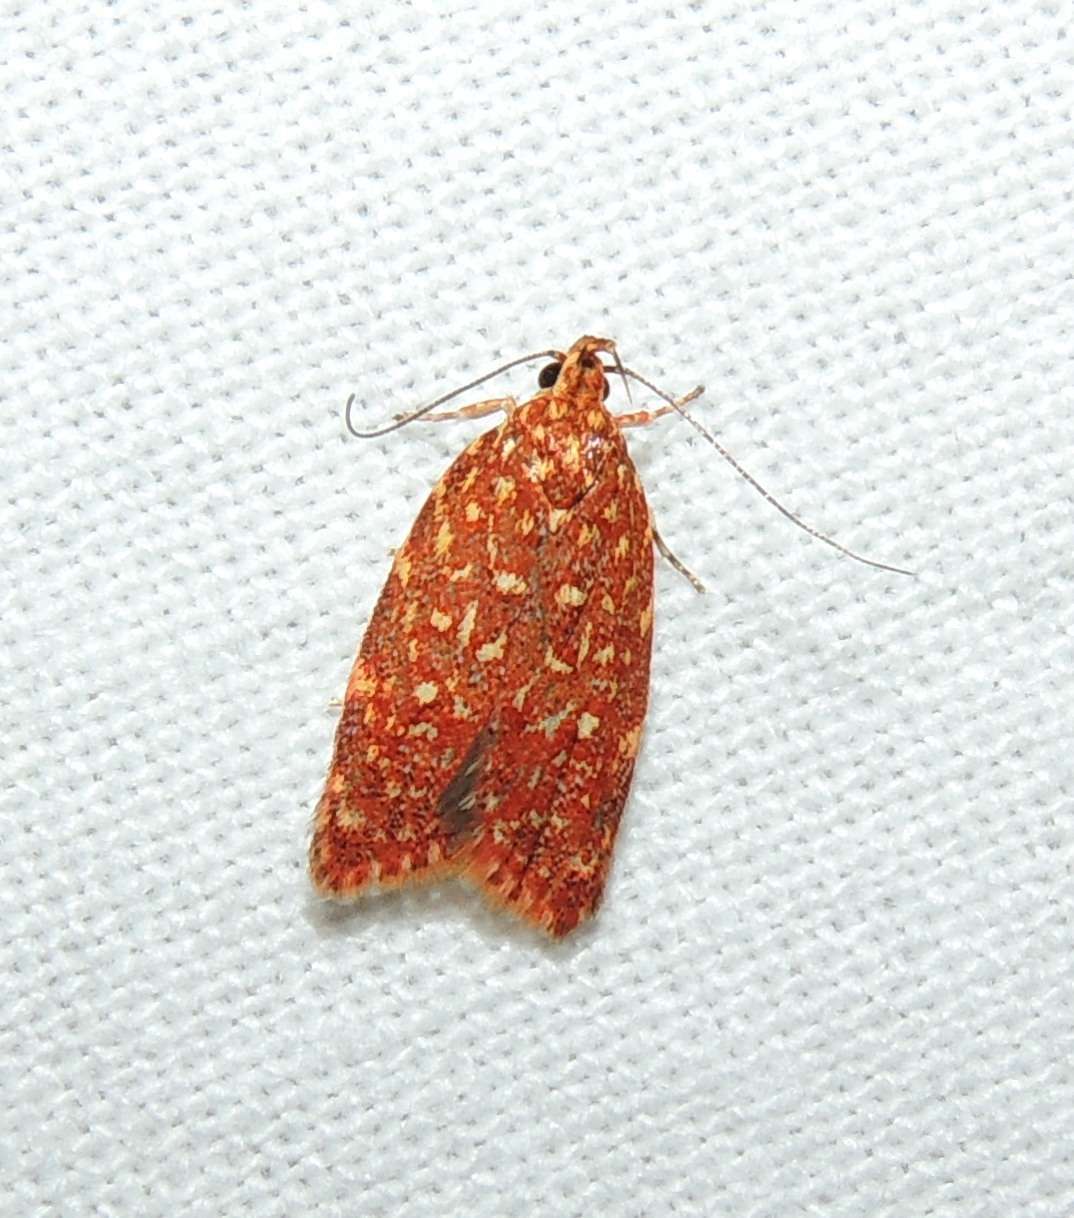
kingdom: Animalia
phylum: Arthropoda
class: Insecta
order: Lepidoptera
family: Oecophoridae
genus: Syringoseca
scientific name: Syringoseca rhodoxantha
